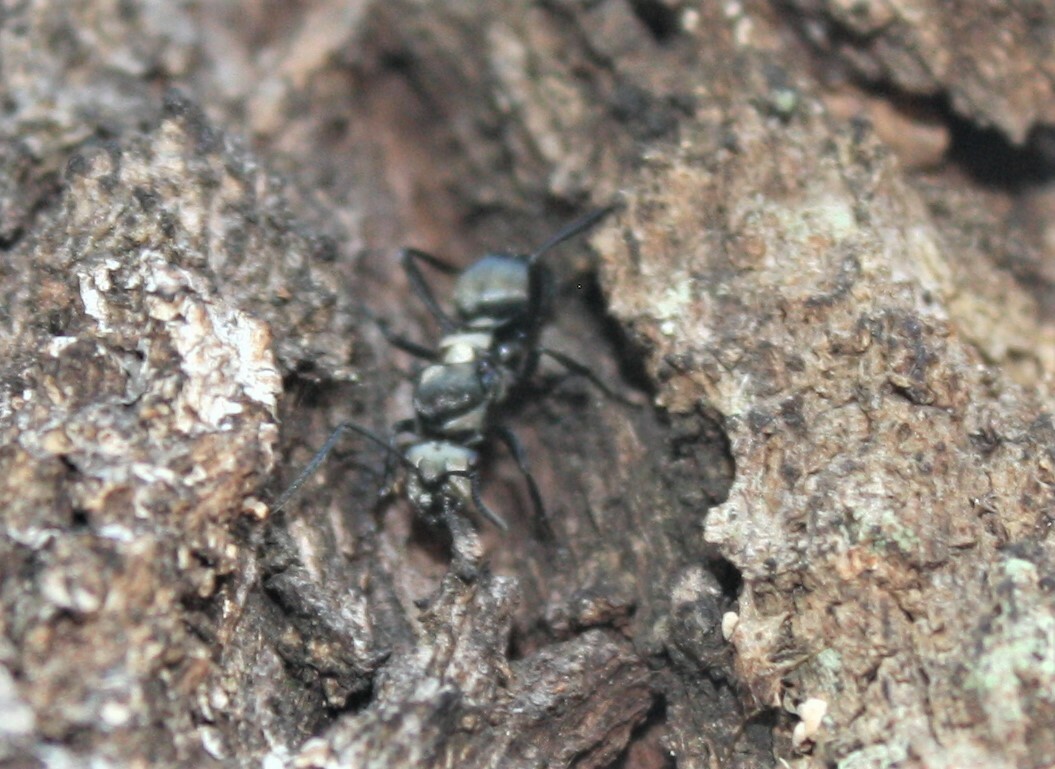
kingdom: Animalia
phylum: Arthropoda
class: Insecta
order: Hymenoptera
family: Formicidae
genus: Polyrhachis
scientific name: Polyrhachis daemeli
